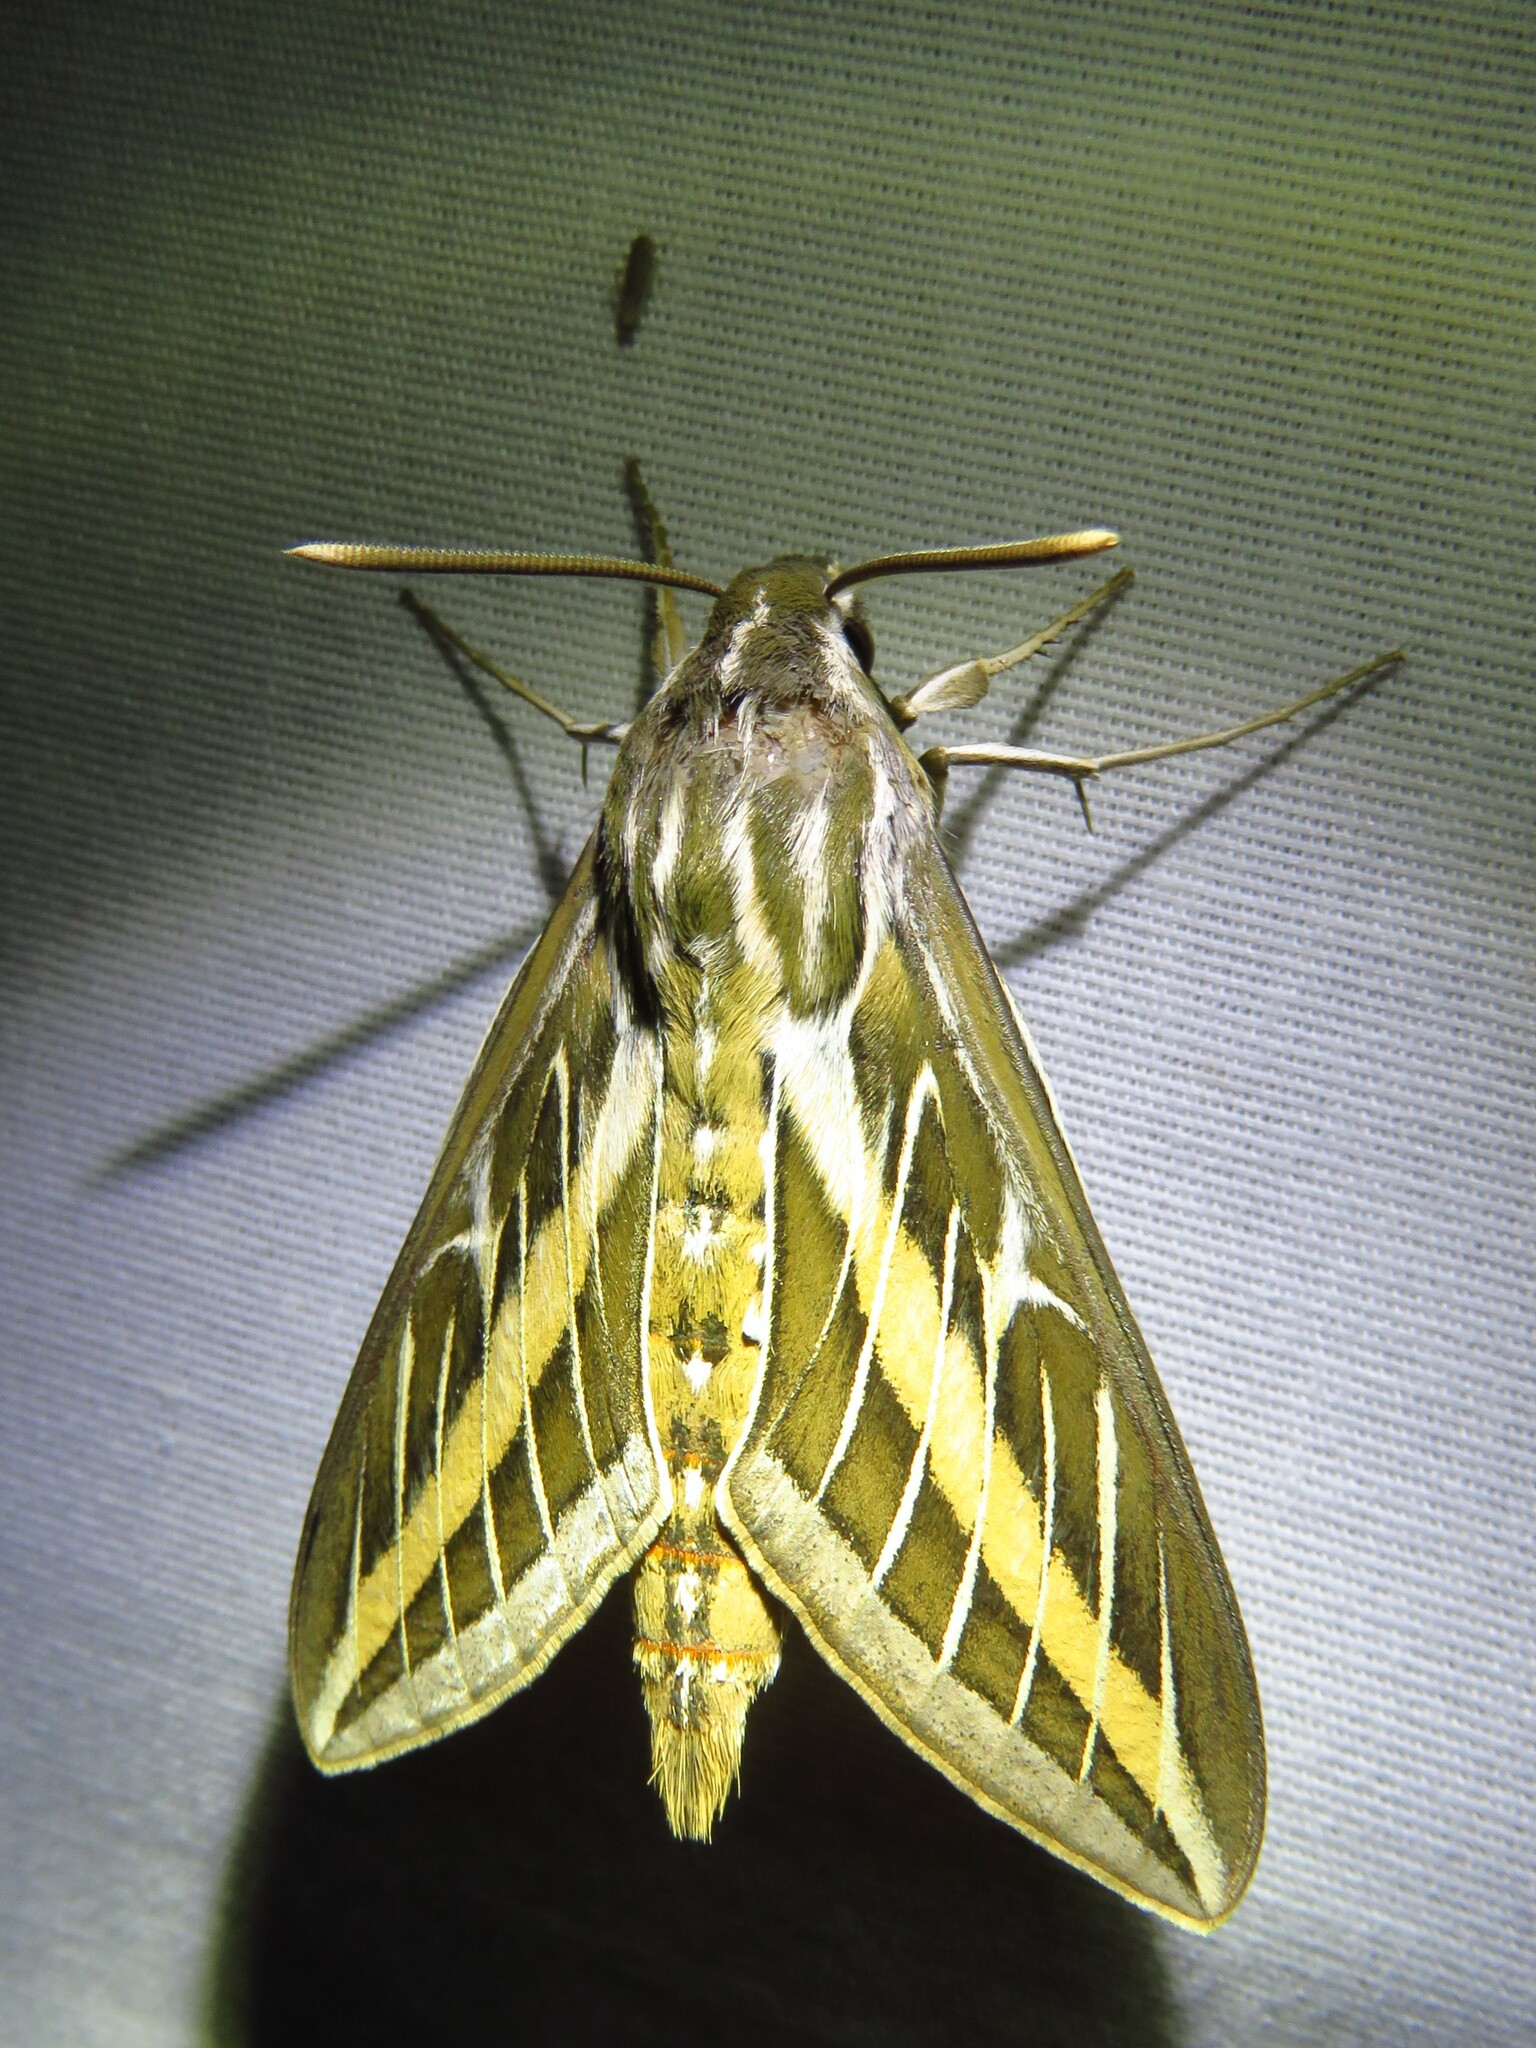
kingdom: Animalia
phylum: Arthropoda
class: Insecta
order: Lepidoptera
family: Sphingidae
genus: Hyles
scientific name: Hyles lineata
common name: White-lined sphinx
